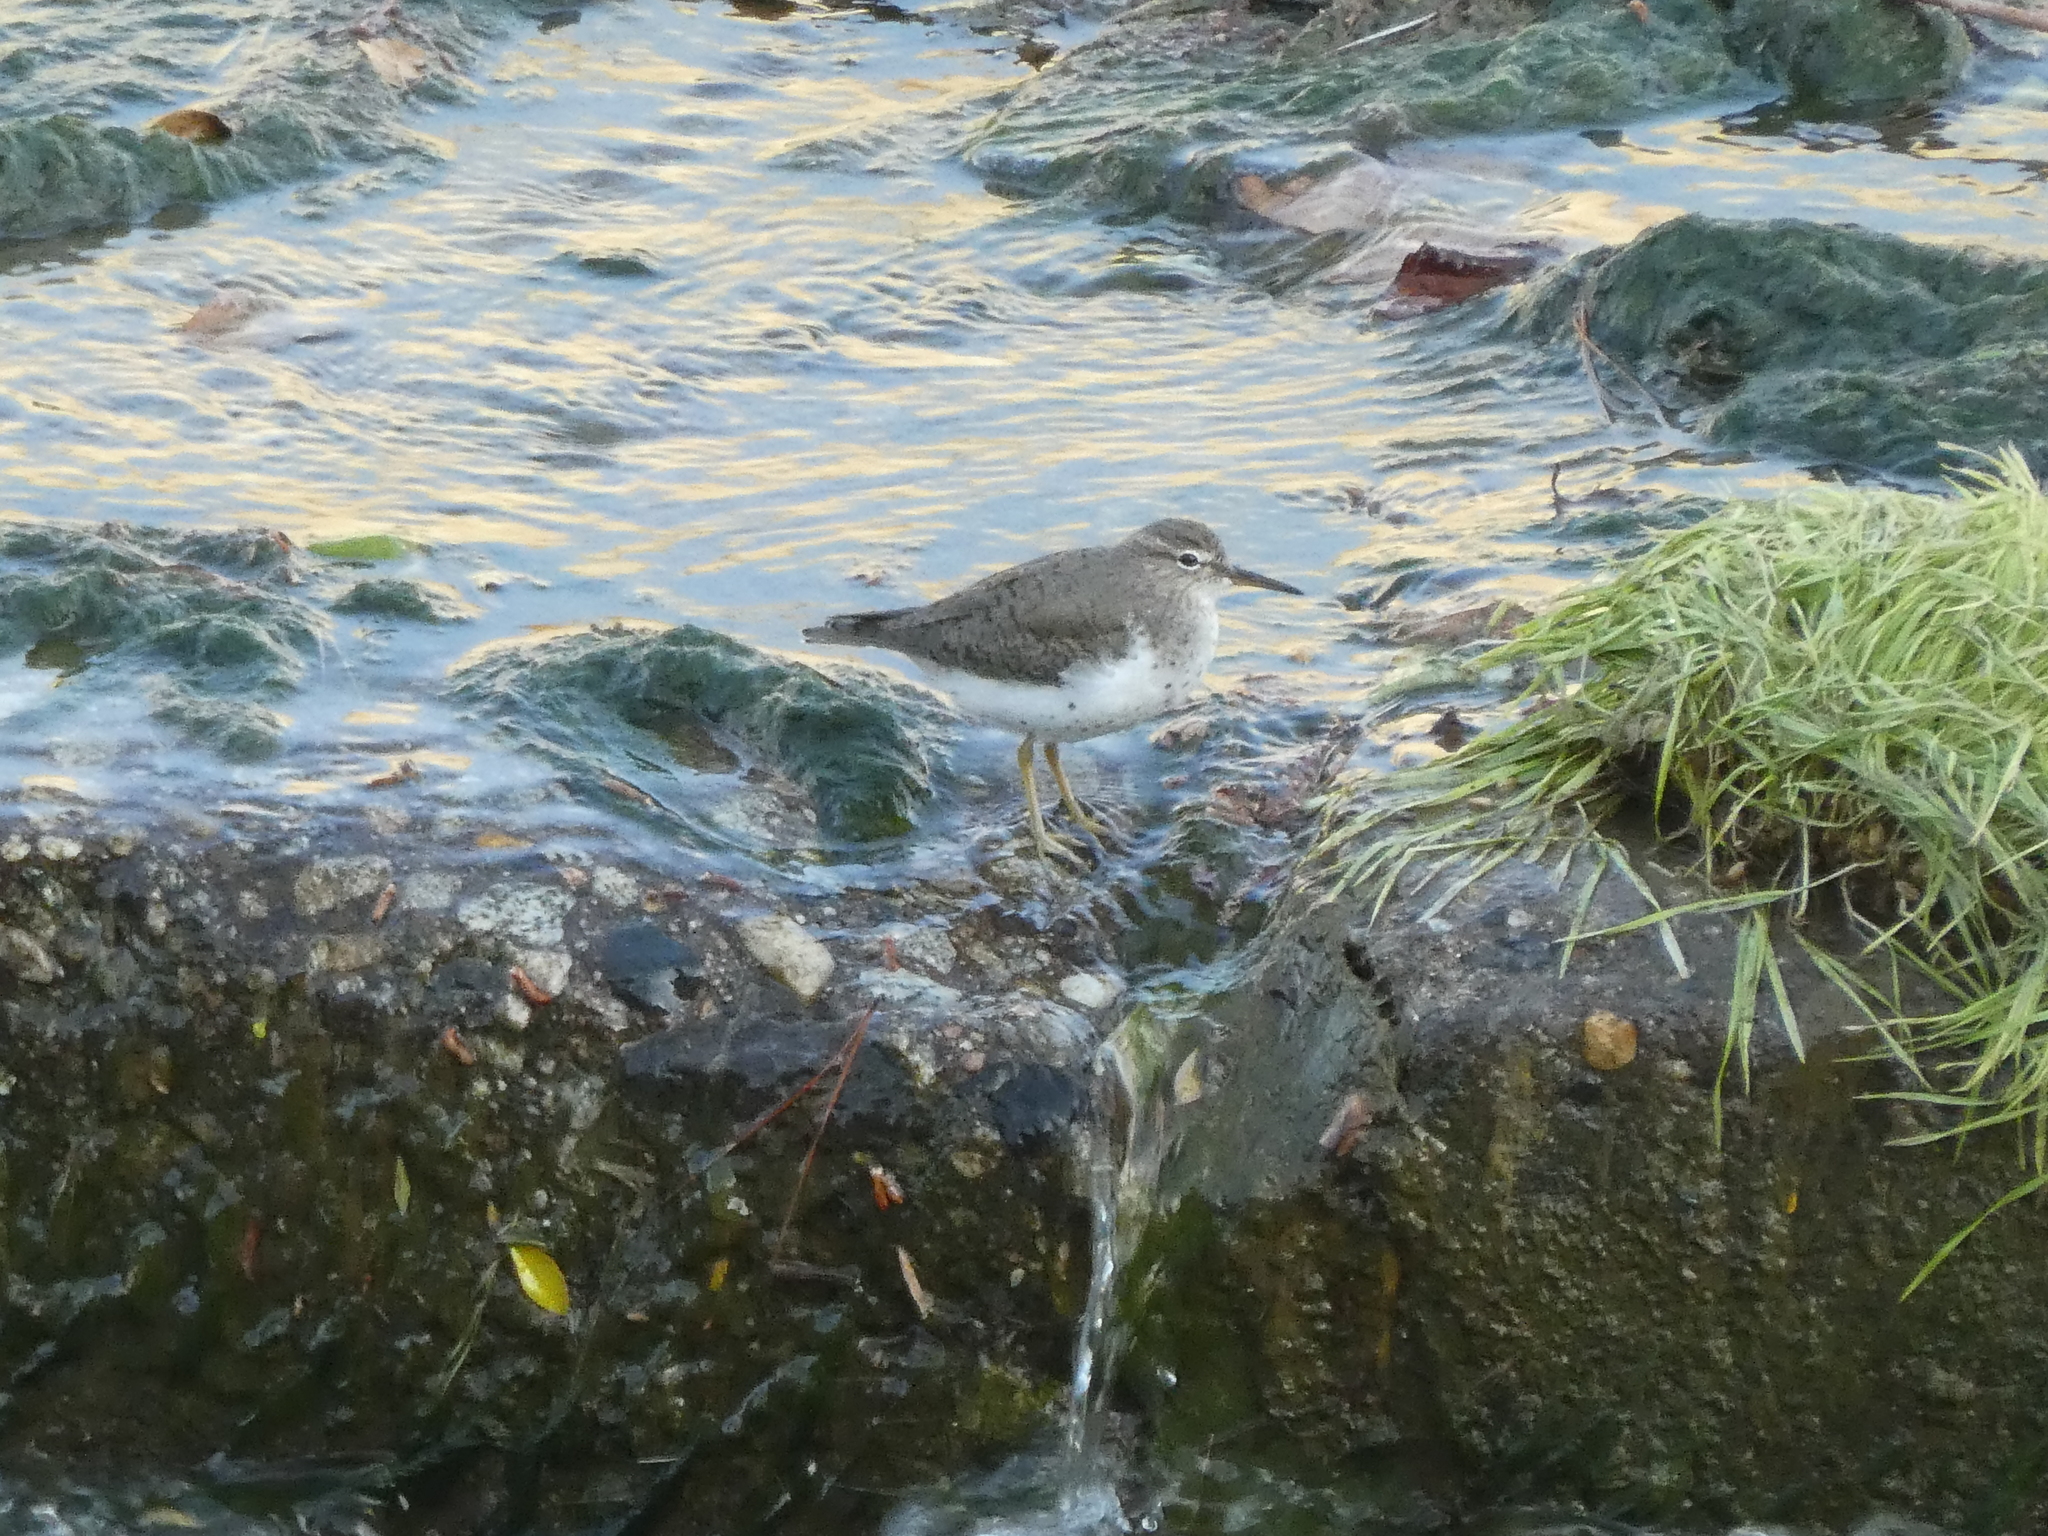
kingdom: Animalia
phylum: Chordata
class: Aves
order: Charadriiformes
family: Scolopacidae
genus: Actitis
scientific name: Actitis macularius
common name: Spotted sandpiper
